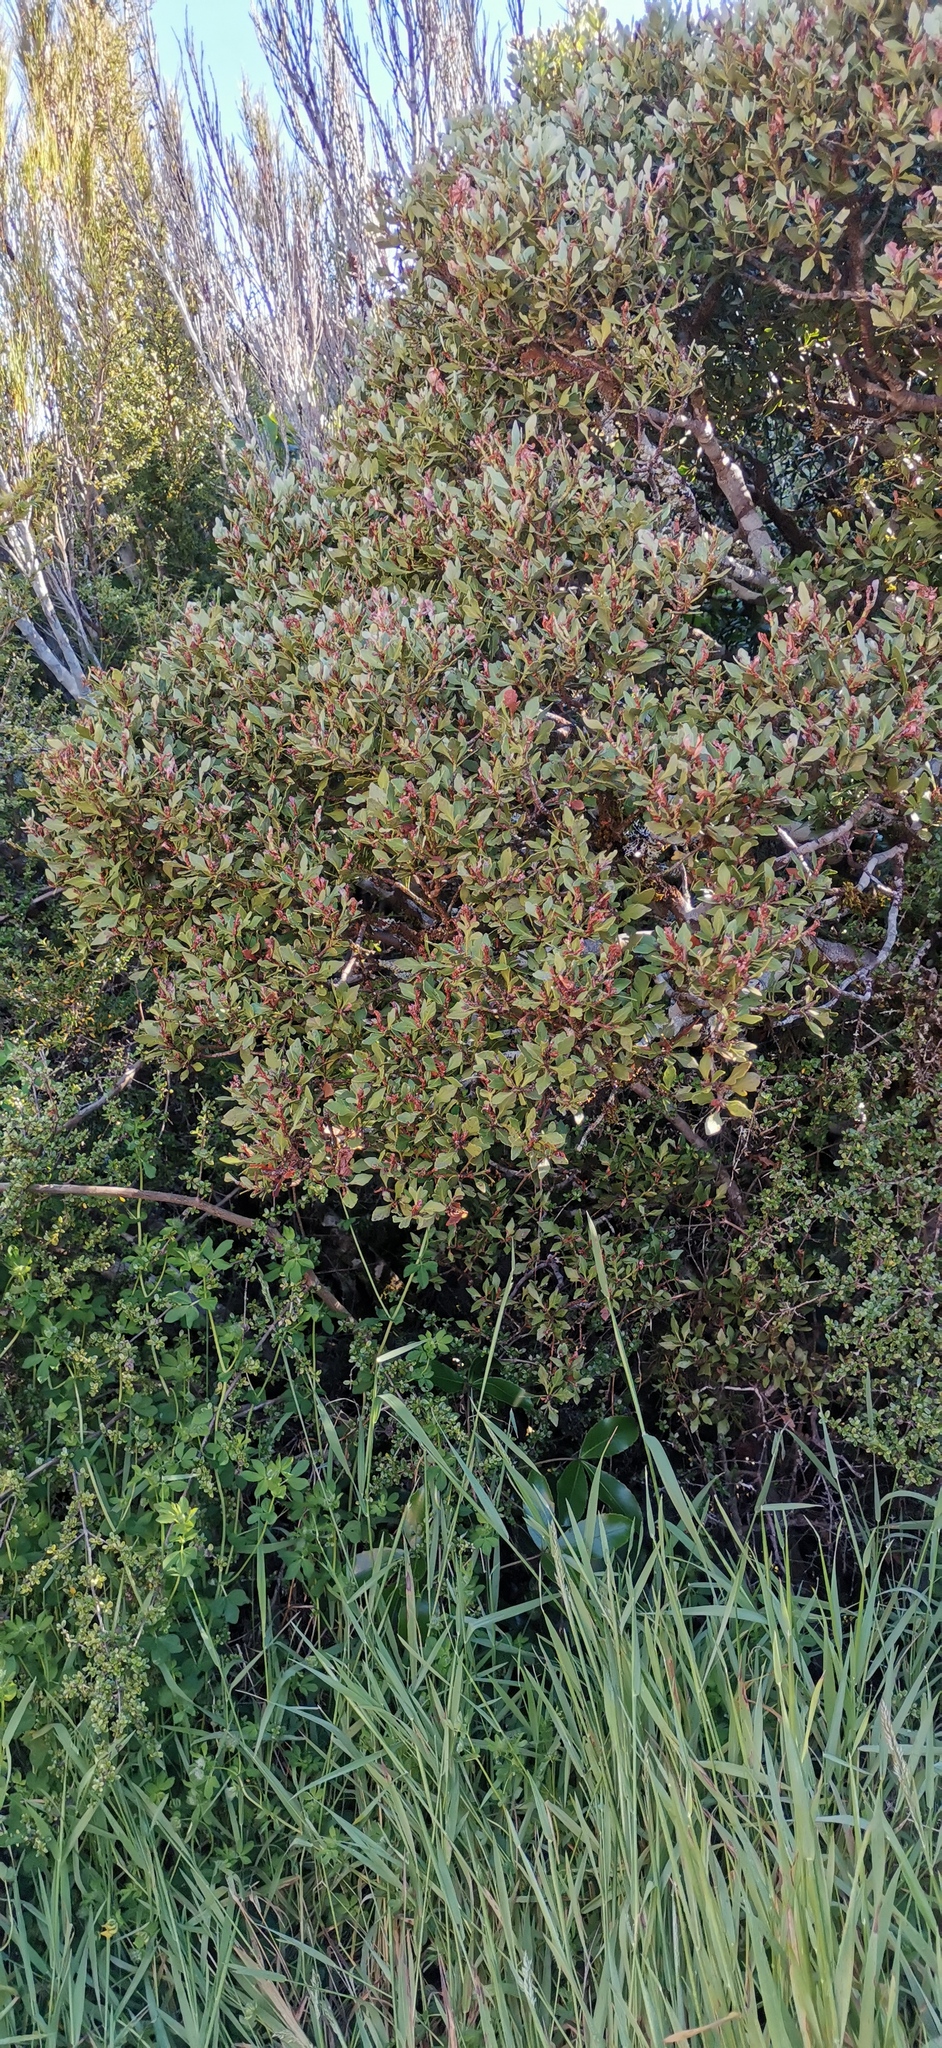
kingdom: Plantae
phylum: Tracheophyta
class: Pinopsida
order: Pinales
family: Phyllocladaceae
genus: Phyllocladus
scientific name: Phyllocladus trichomanoides
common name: Celery pine
